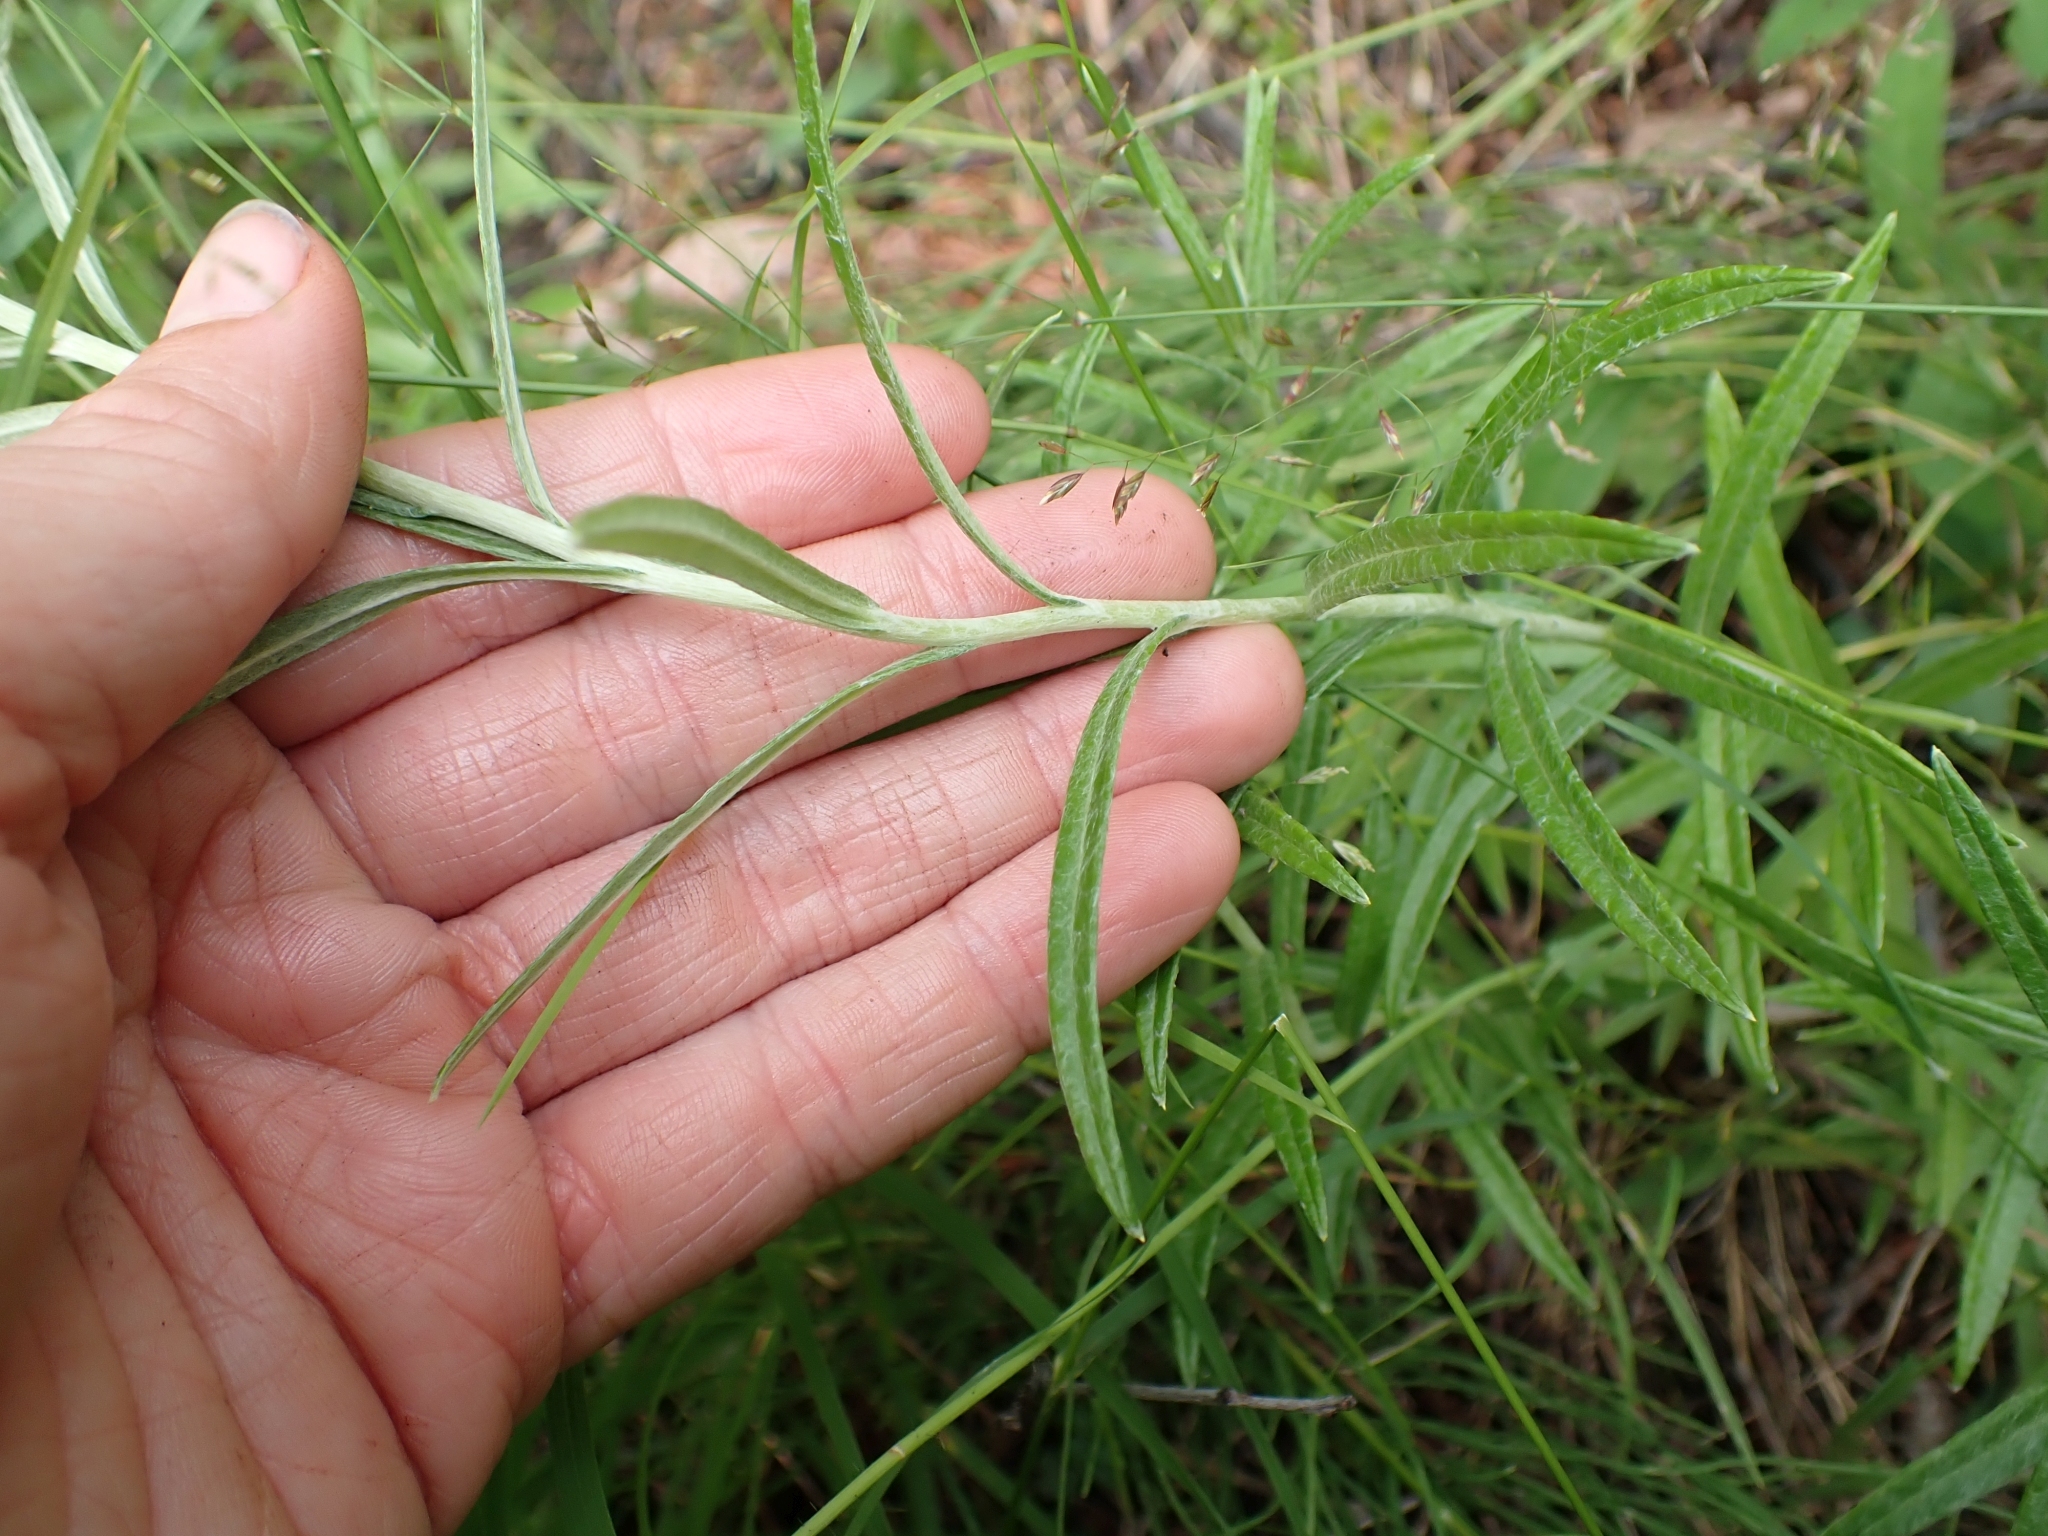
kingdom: Plantae
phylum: Tracheophyta
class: Magnoliopsida
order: Asterales
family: Asteraceae
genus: Anaphalis
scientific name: Anaphalis margaritacea
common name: Pearly everlasting
